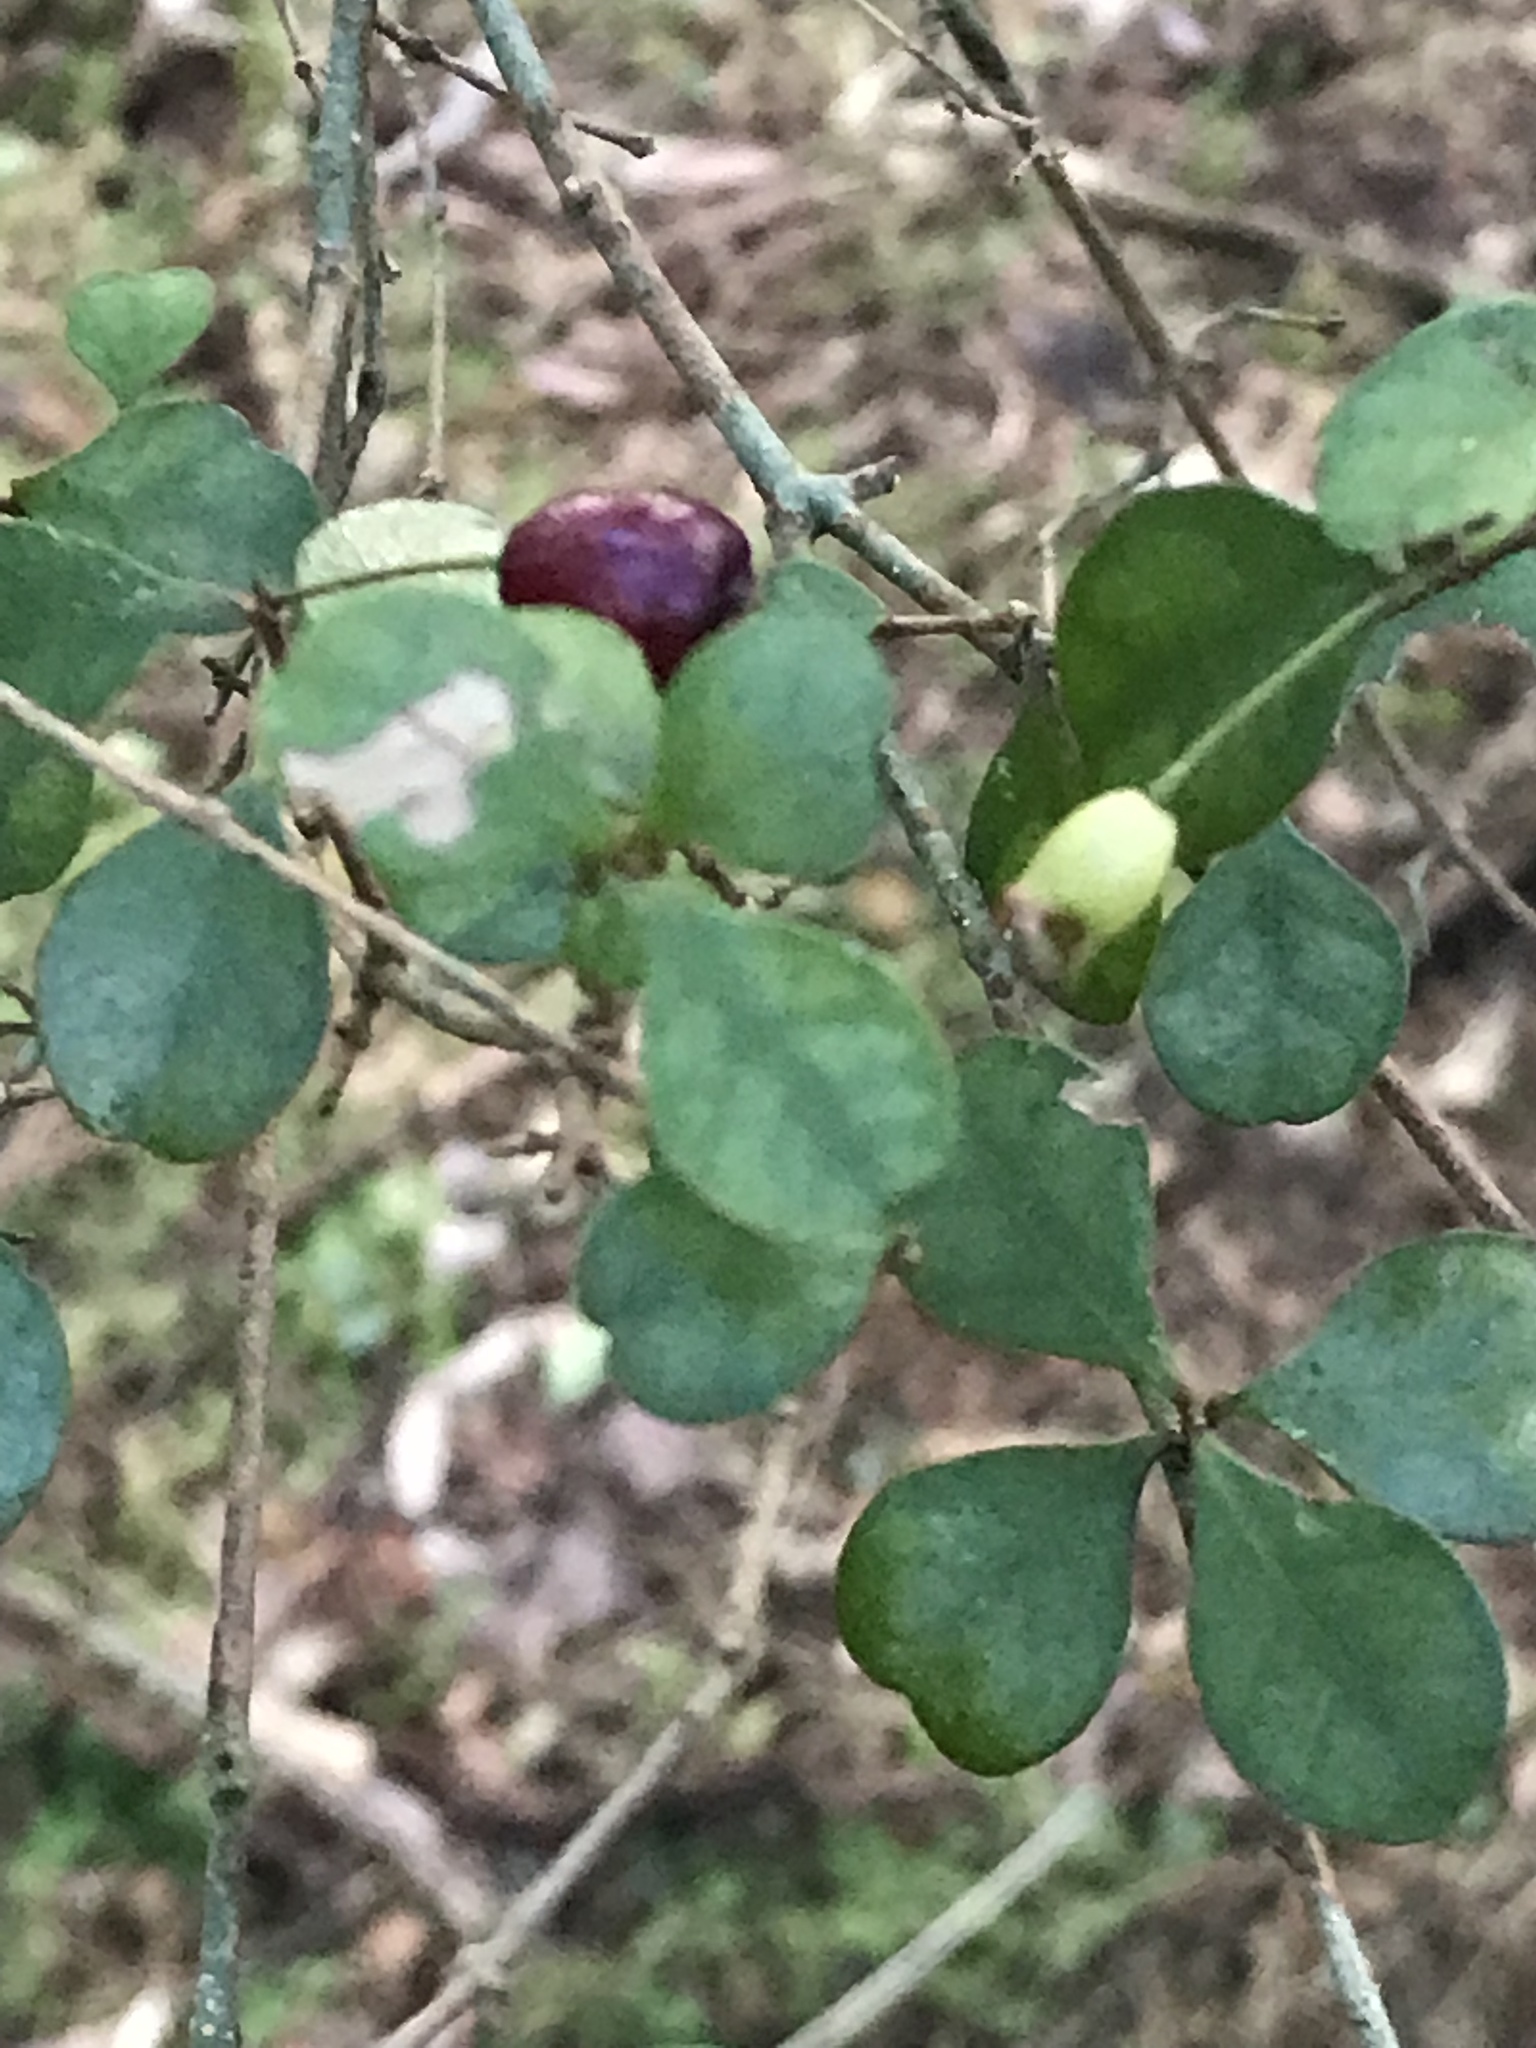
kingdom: Plantae
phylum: Tracheophyta
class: Magnoliopsida
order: Myrtales
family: Myrtaceae
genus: Lophomyrtus
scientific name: Lophomyrtus obcordata
